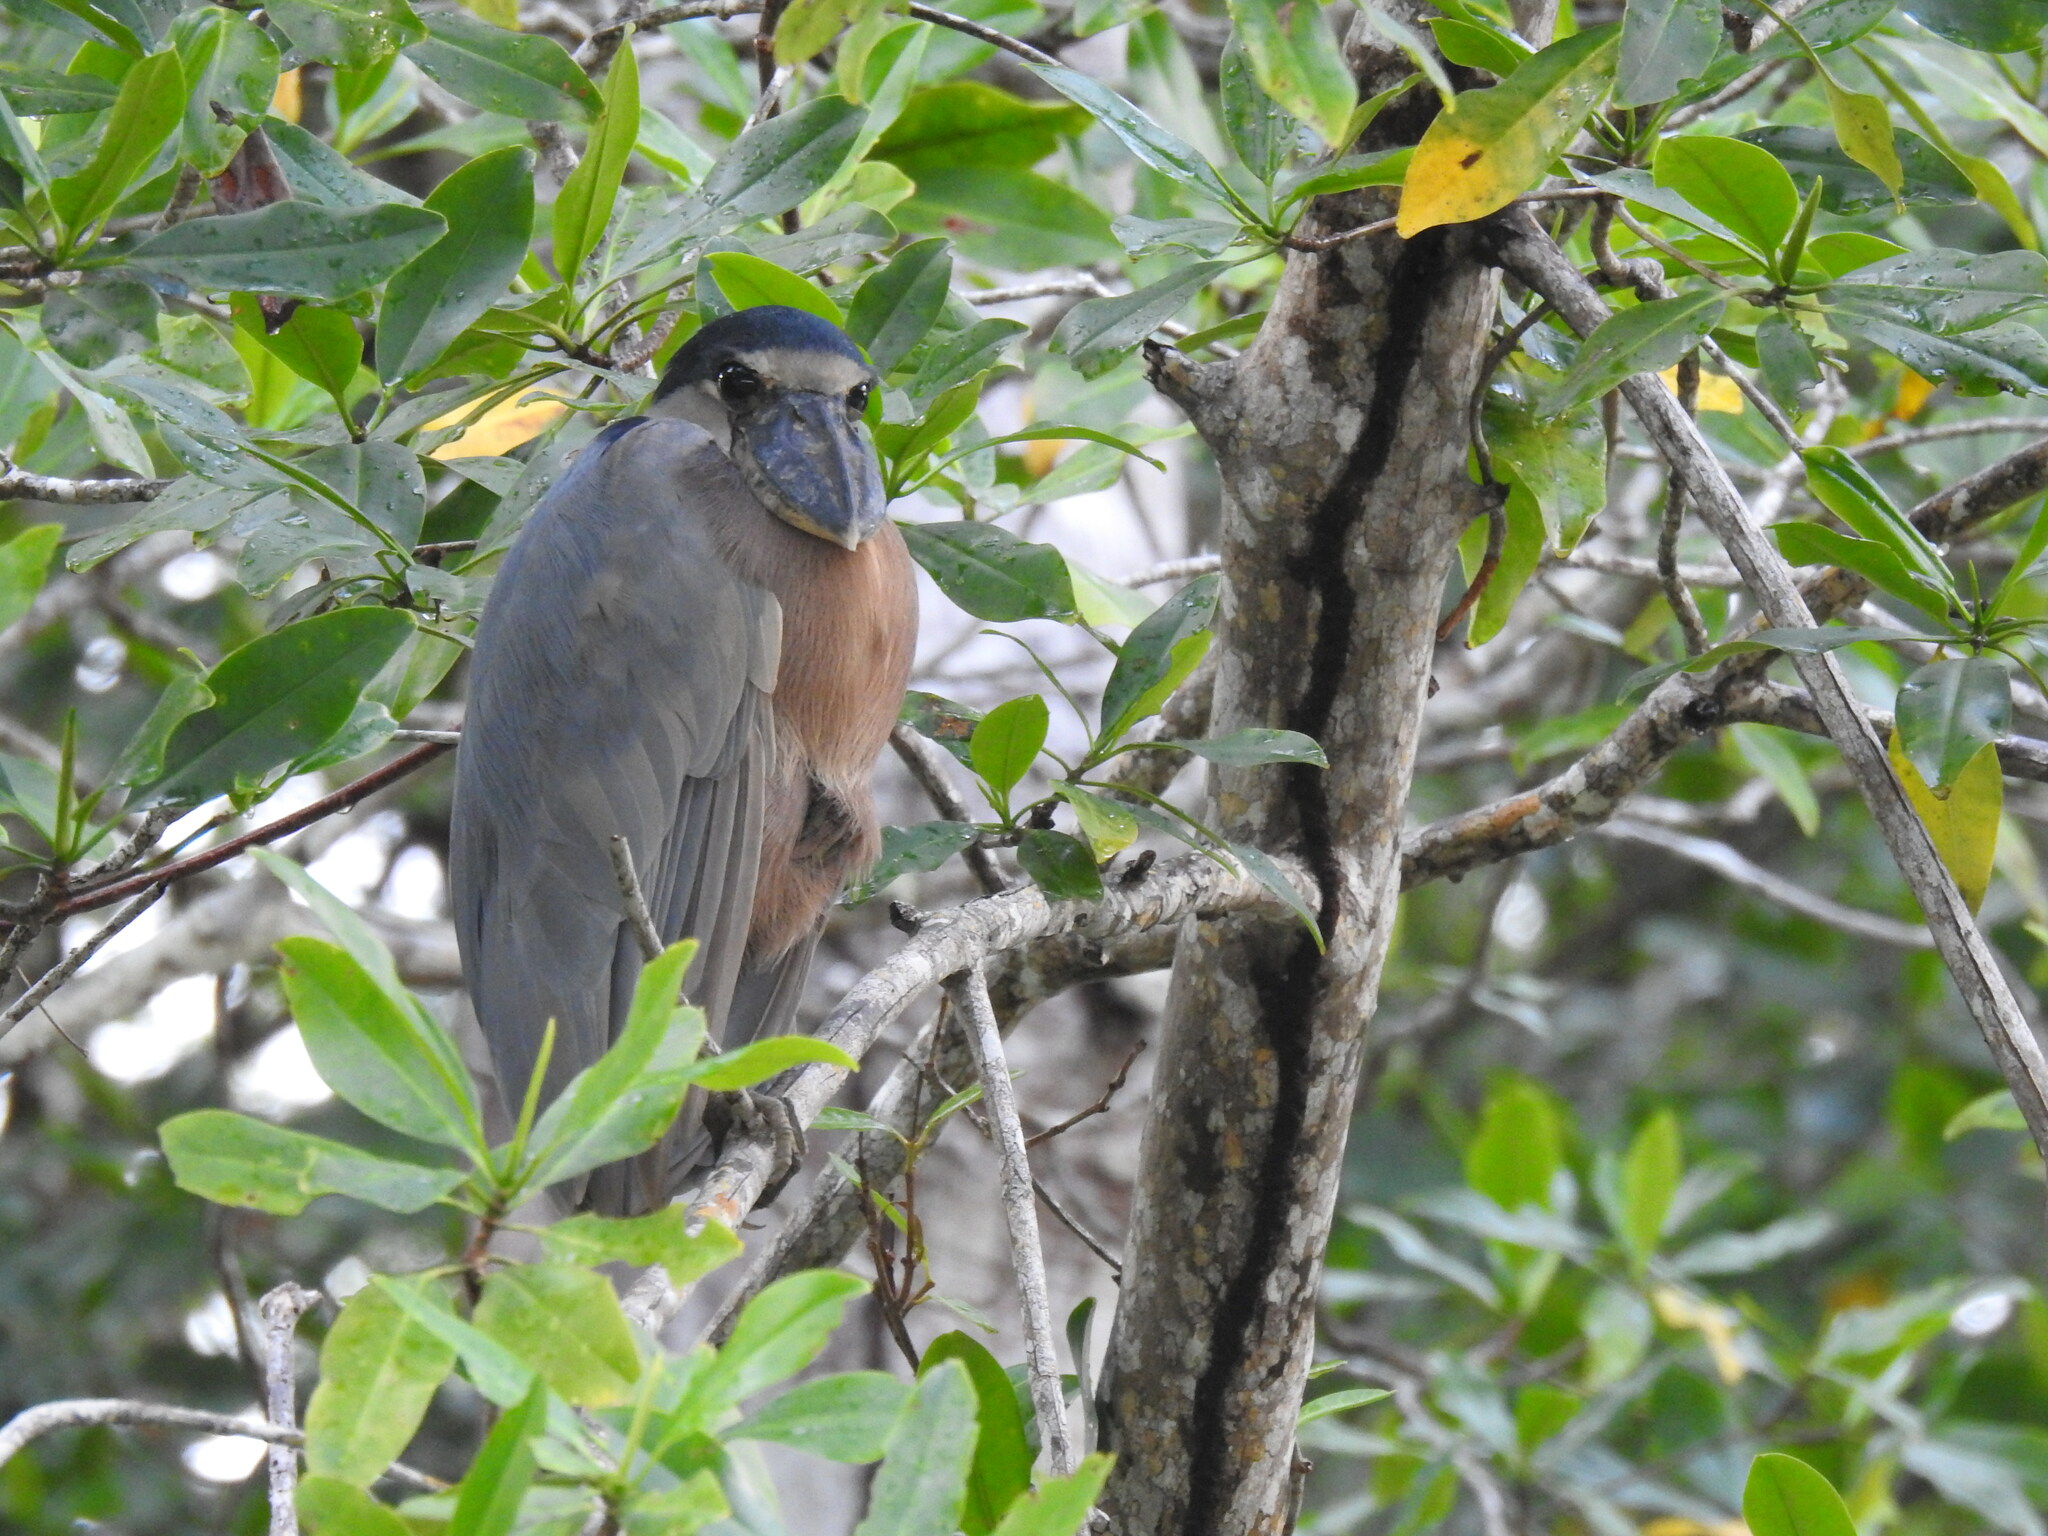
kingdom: Animalia
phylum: Chordata
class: Aves
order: Pelecaniformes
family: Ardeidae
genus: Cochlearius
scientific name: Cochlearius cochlearius
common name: Boat-billed heron
